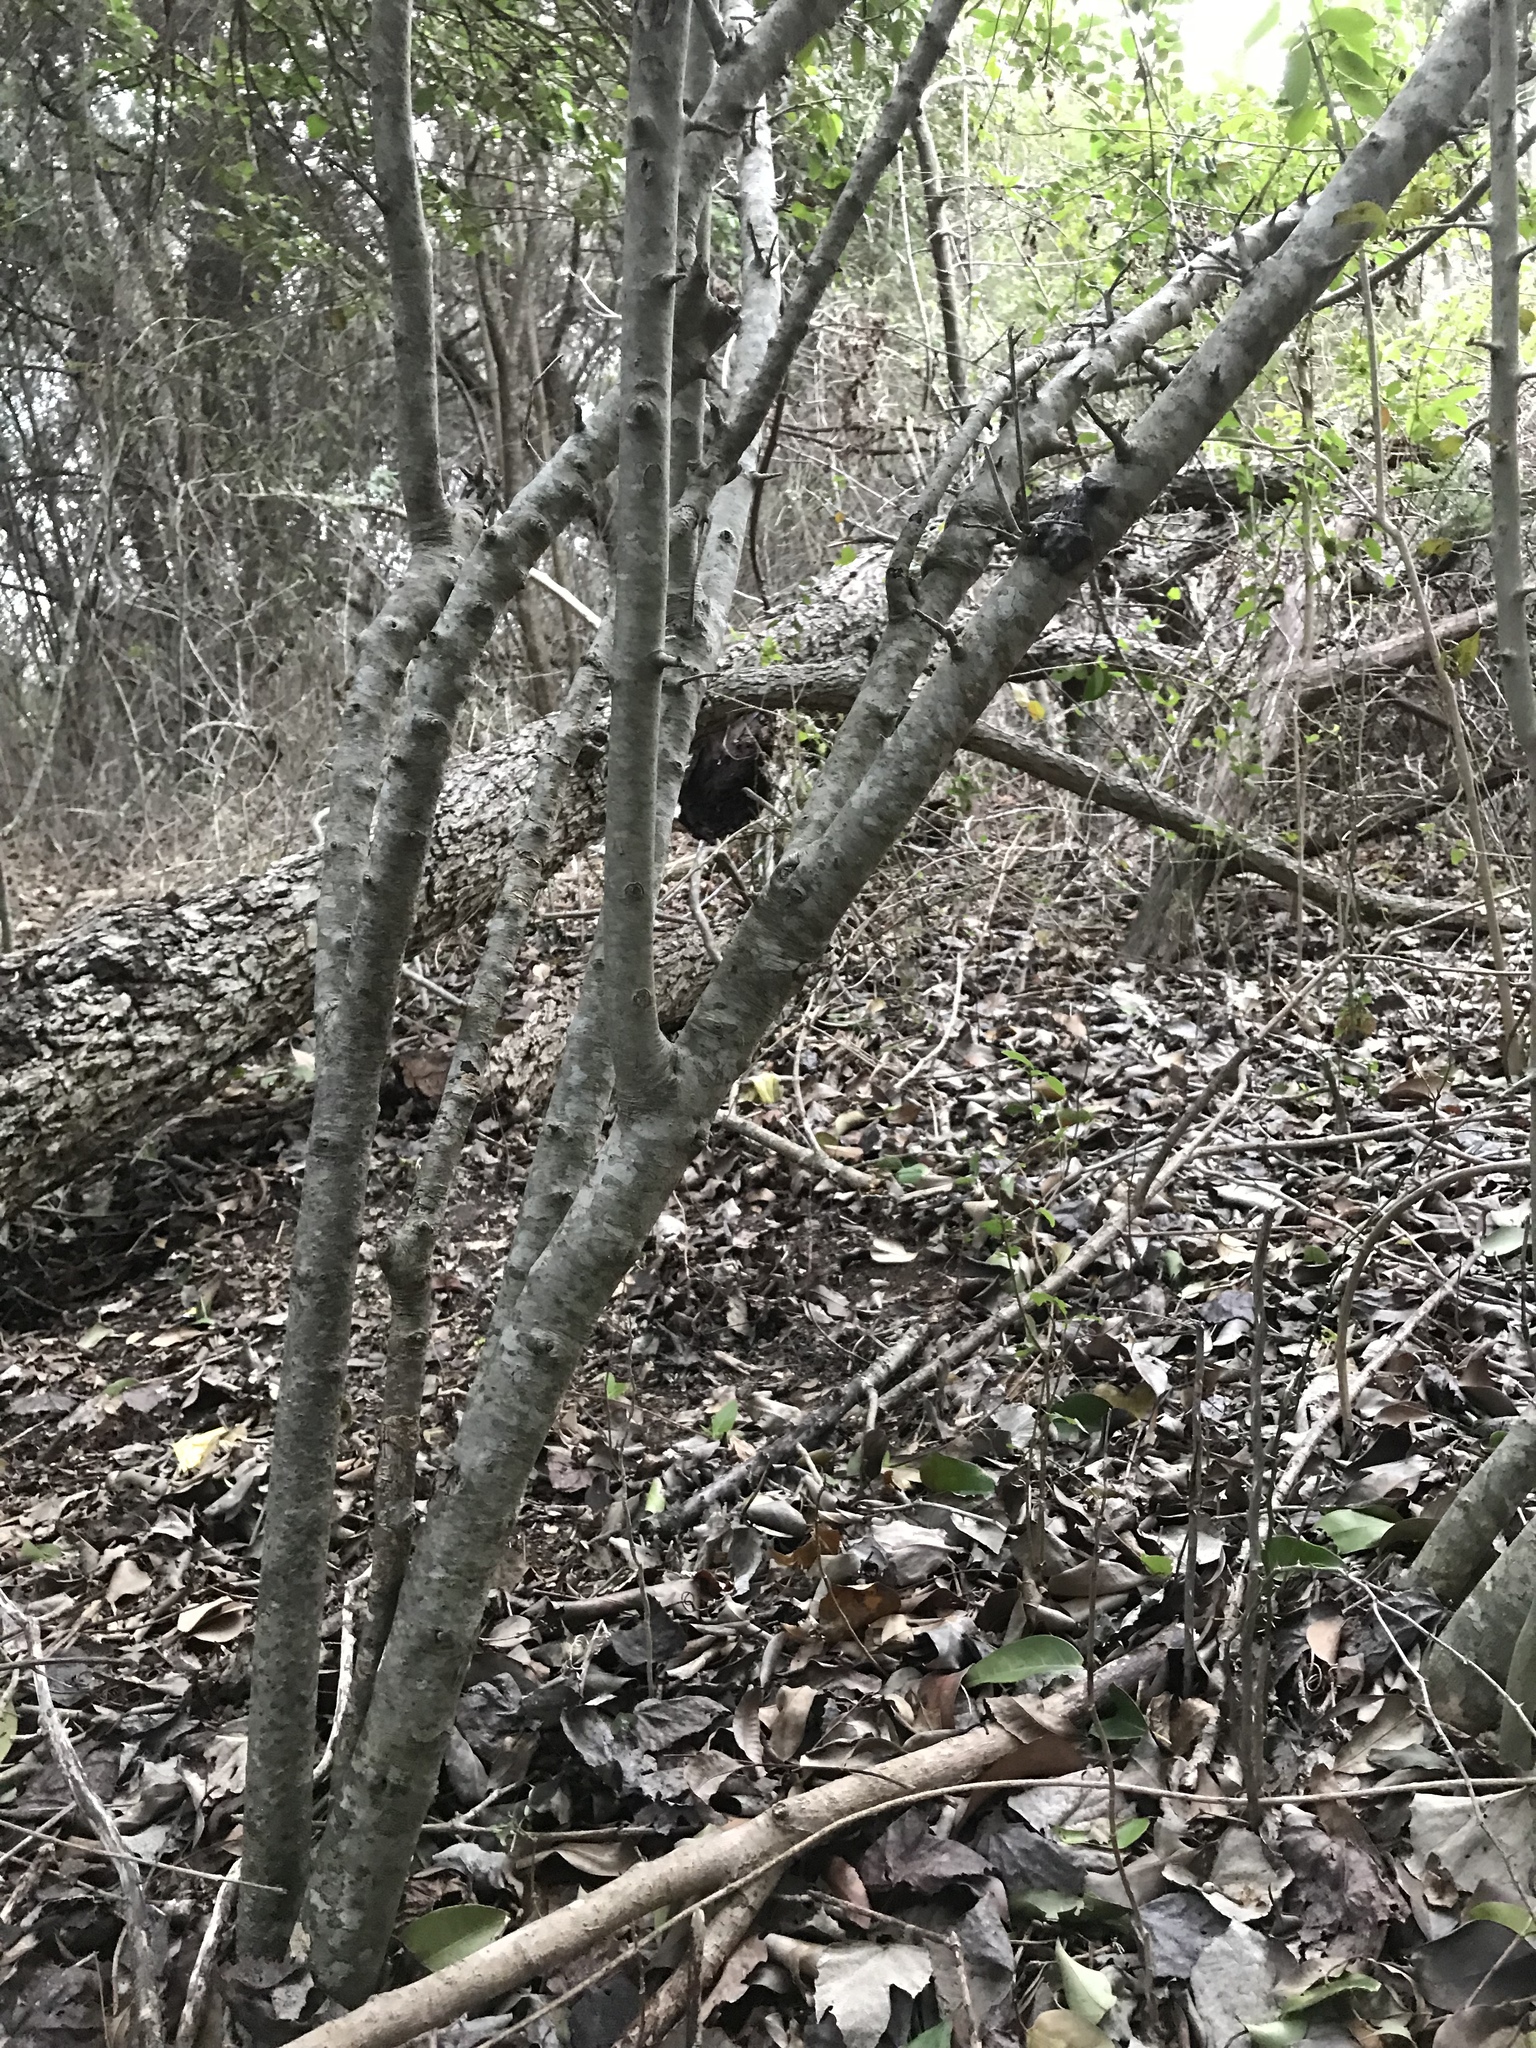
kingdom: Plantae
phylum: Tracheophyta
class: Magnoliopsida
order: Aquifoliales
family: Aquifoliaceae
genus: Ilex
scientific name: Ilex decidua
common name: Possum-haw
